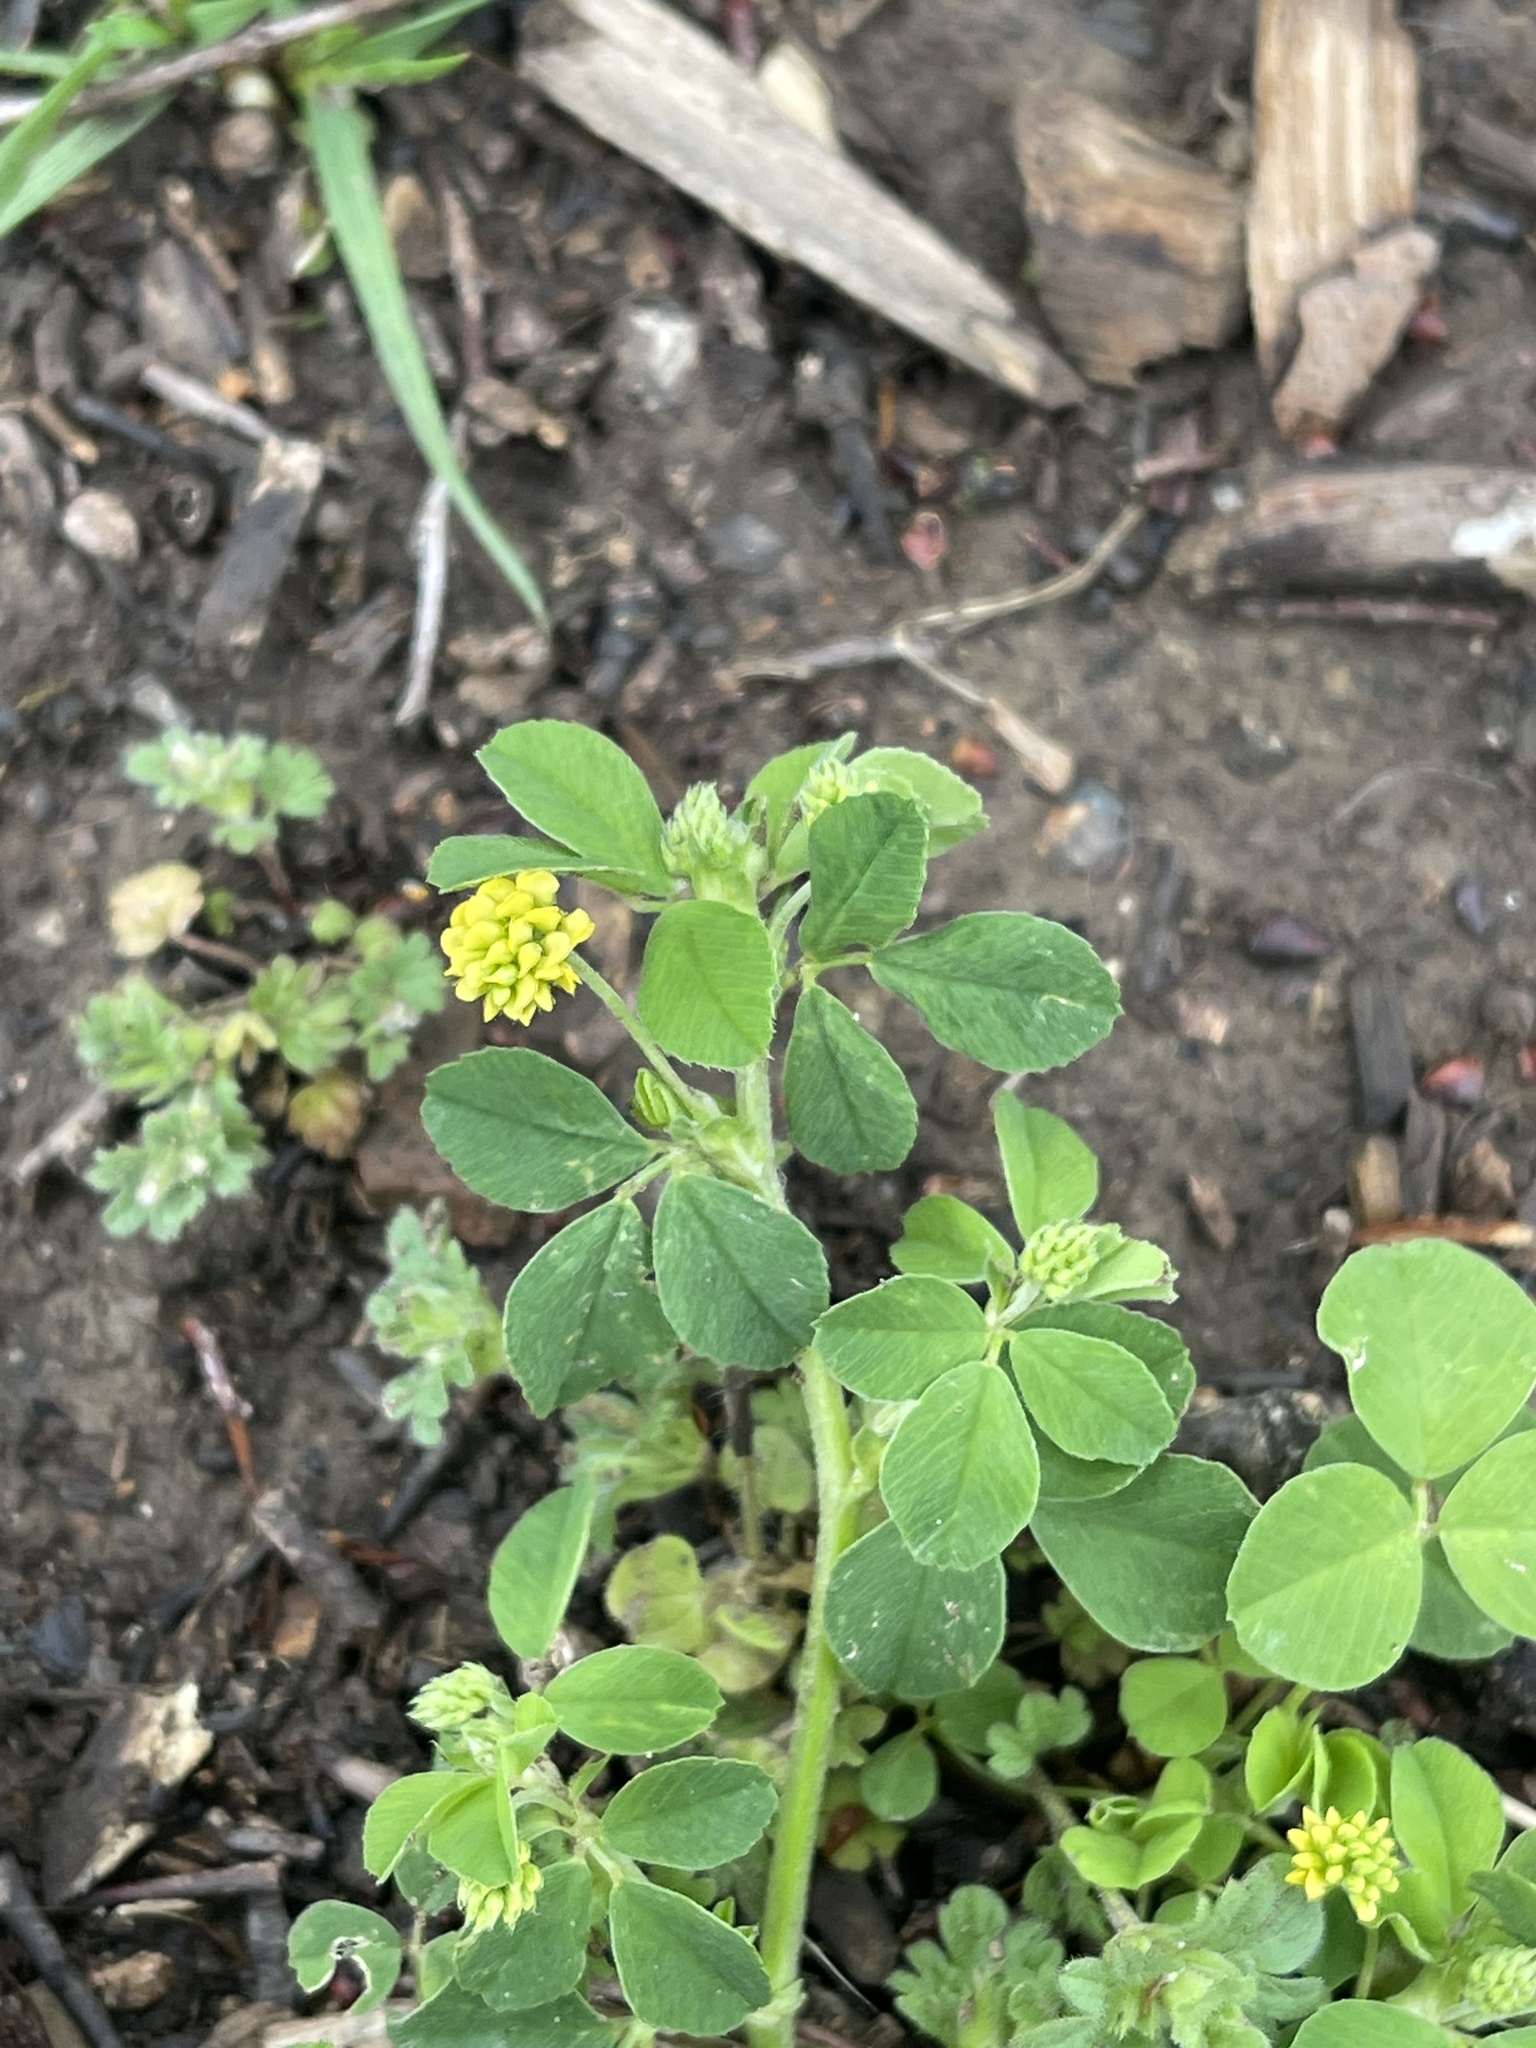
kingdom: Plantae
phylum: Tracheophyta
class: Magnoliopsida
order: Fabales
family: Fabaceae
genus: Medicago
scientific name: Medicago lupulina
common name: Black medick
